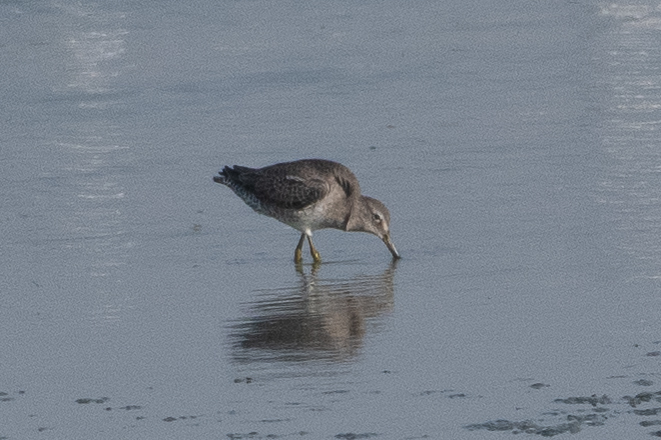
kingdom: Animalia
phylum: Chordata
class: Aves
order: Charadriiformes
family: Scolopacidae
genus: Limnodromus
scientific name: Limnodromus scolopaceus
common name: Long-billed dowitcher
